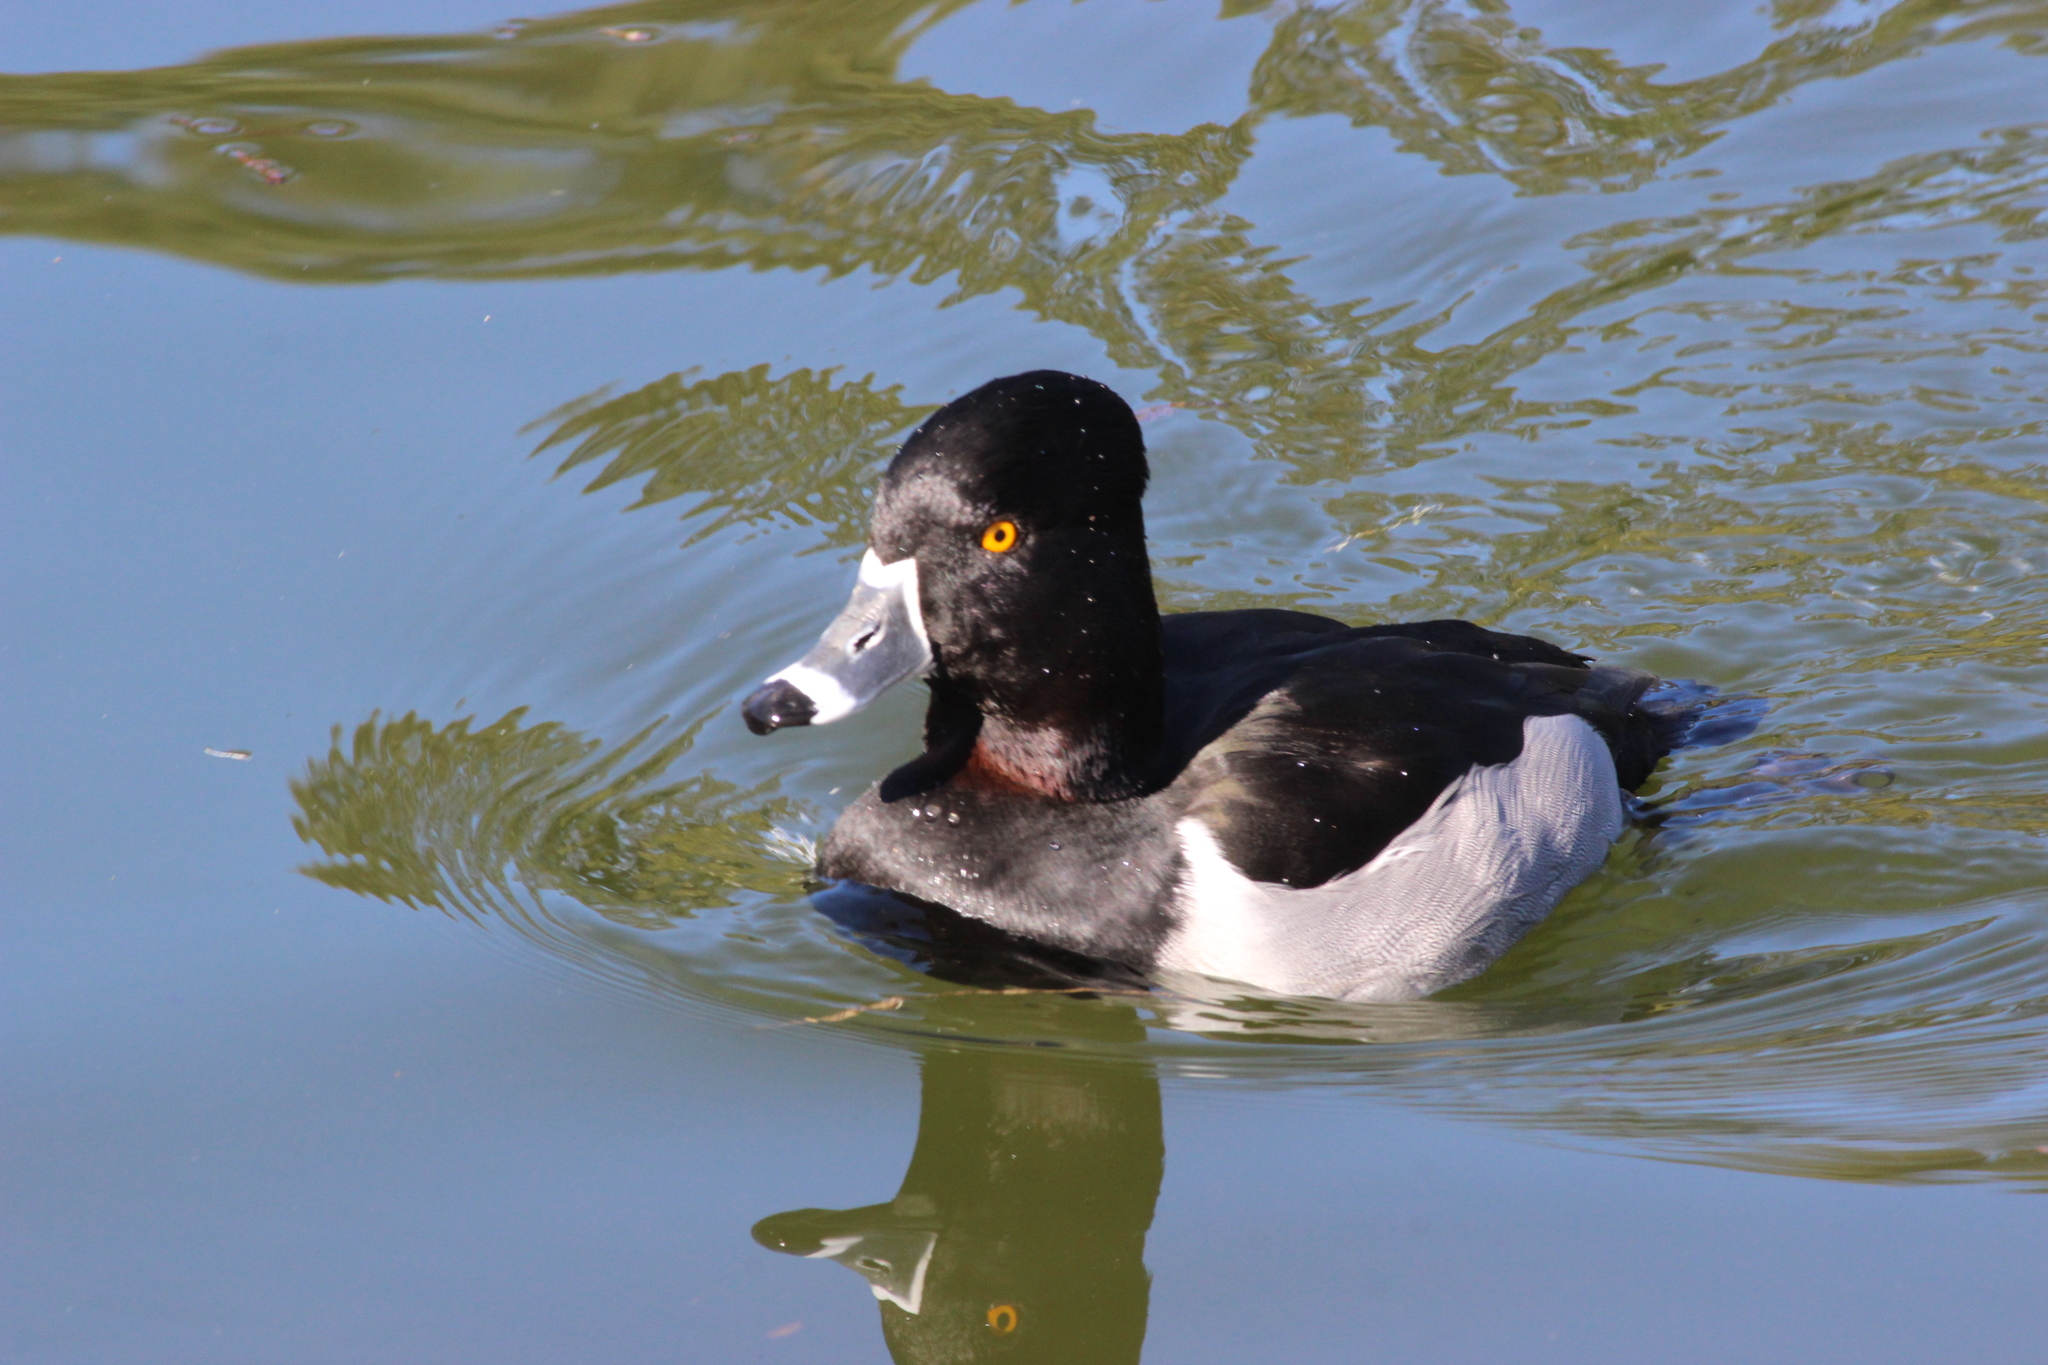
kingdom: Animalia
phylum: Chordata
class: Aves
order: Anseriformes
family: Anatidae
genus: Aythya
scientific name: Aythya collaris
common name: Ring-necked duck
